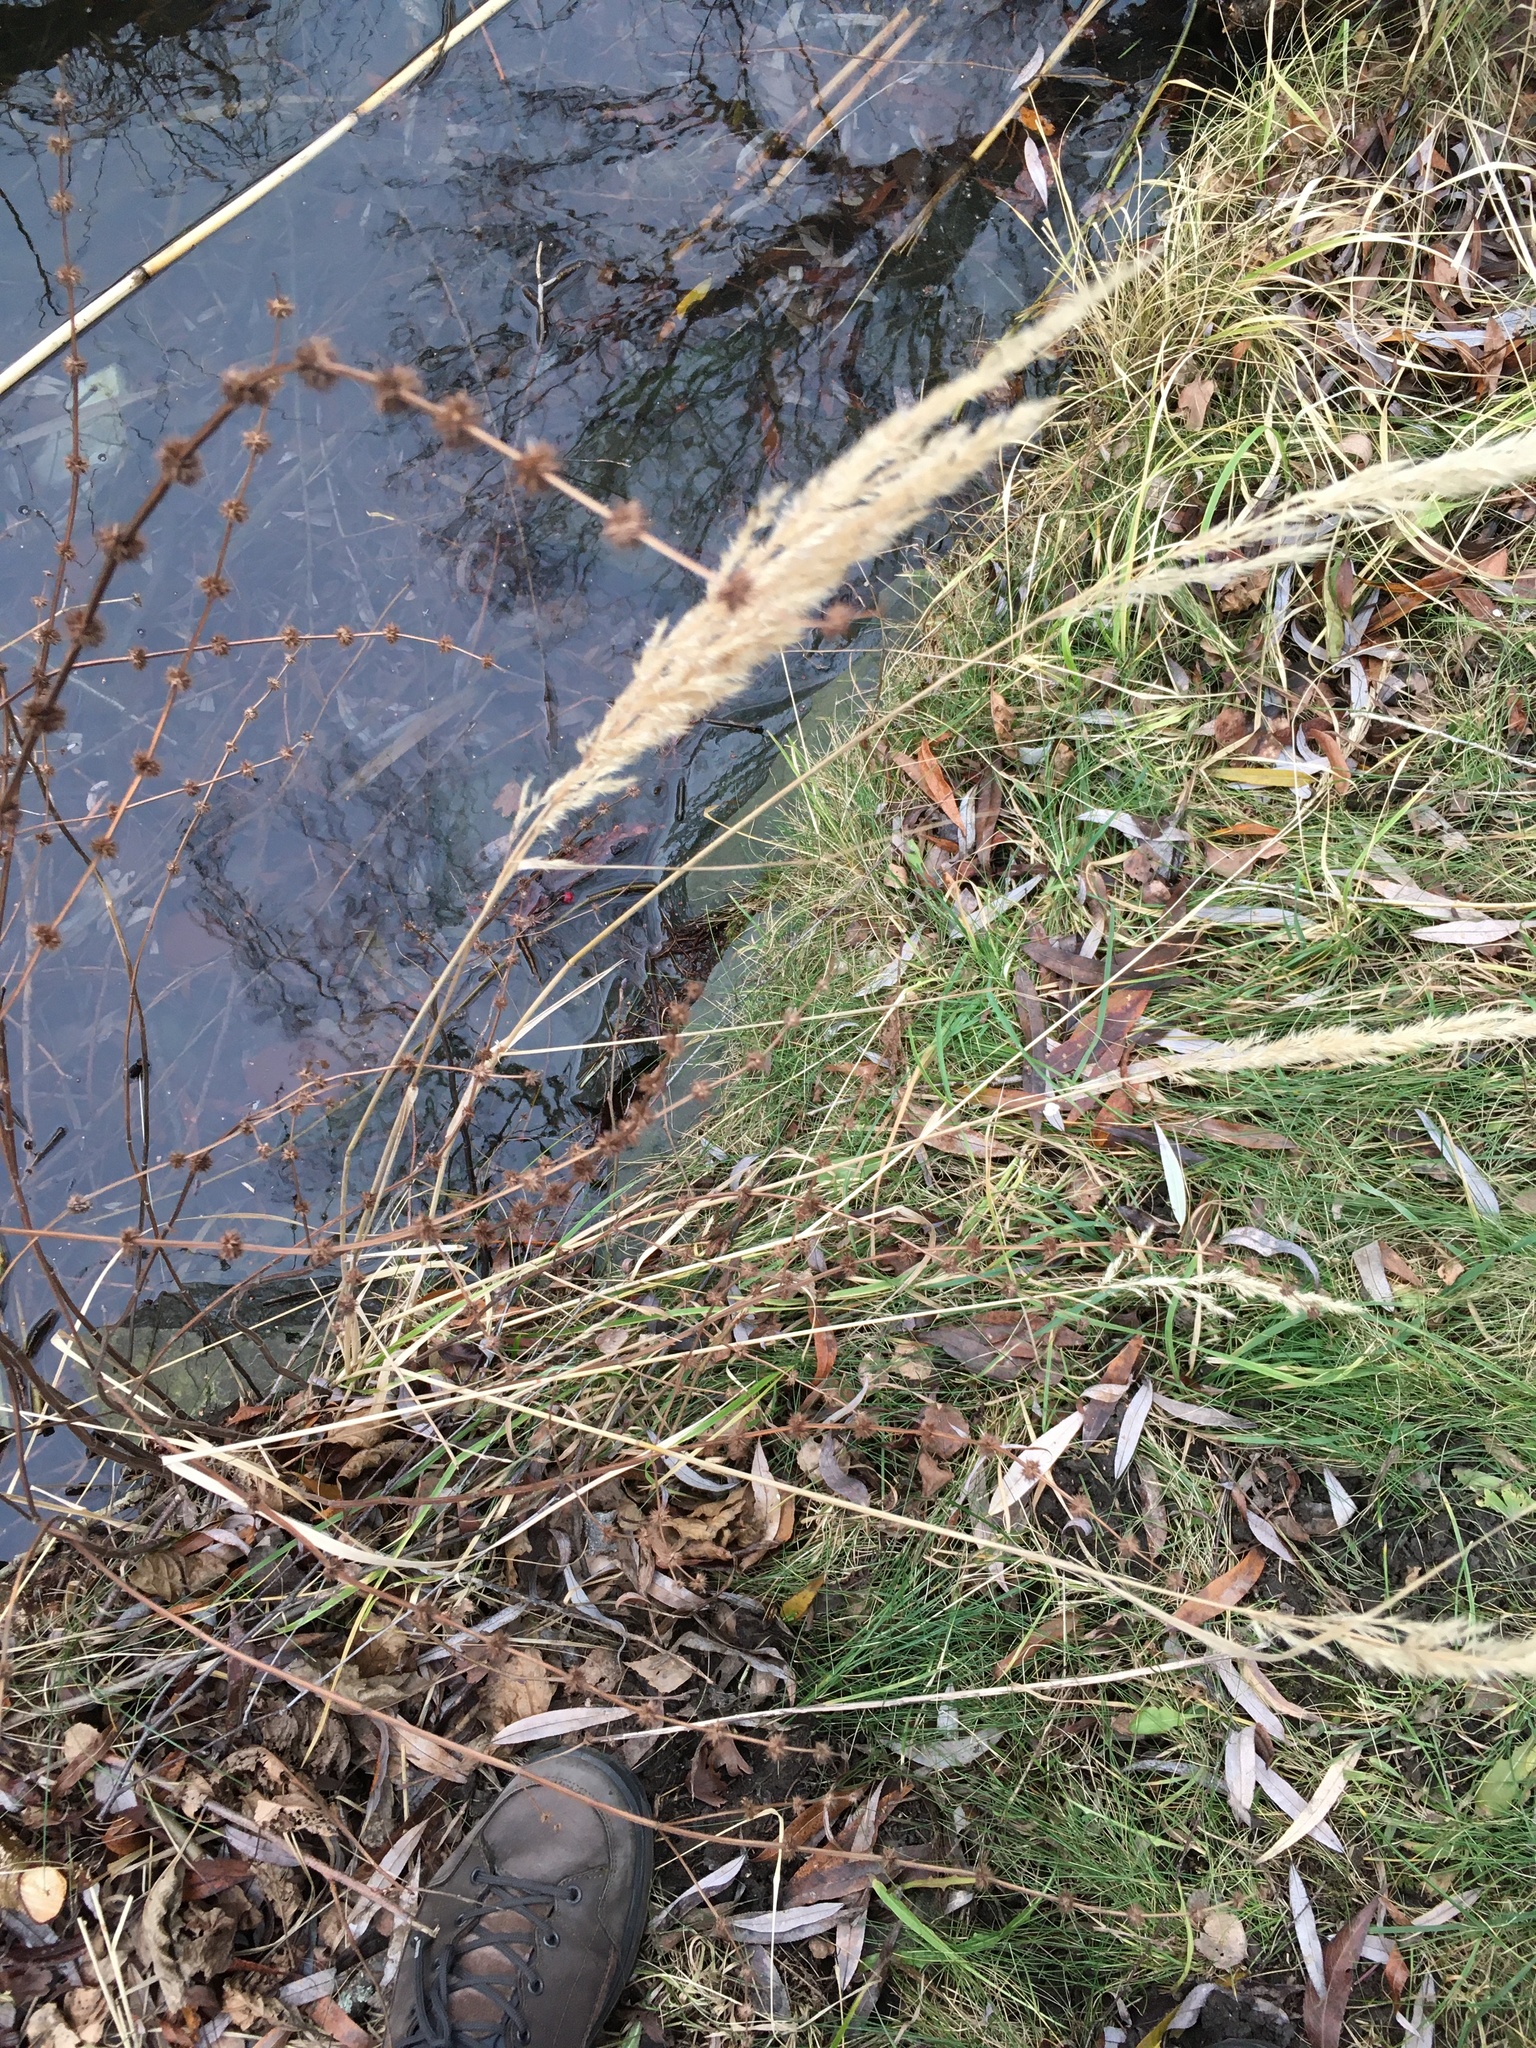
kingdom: Plantae
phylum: Tracheophyta
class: Liliopsida
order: Poales
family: Poaceae
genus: Calamagrostis
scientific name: Calamagrostis epigejos
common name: Wood small-reed
